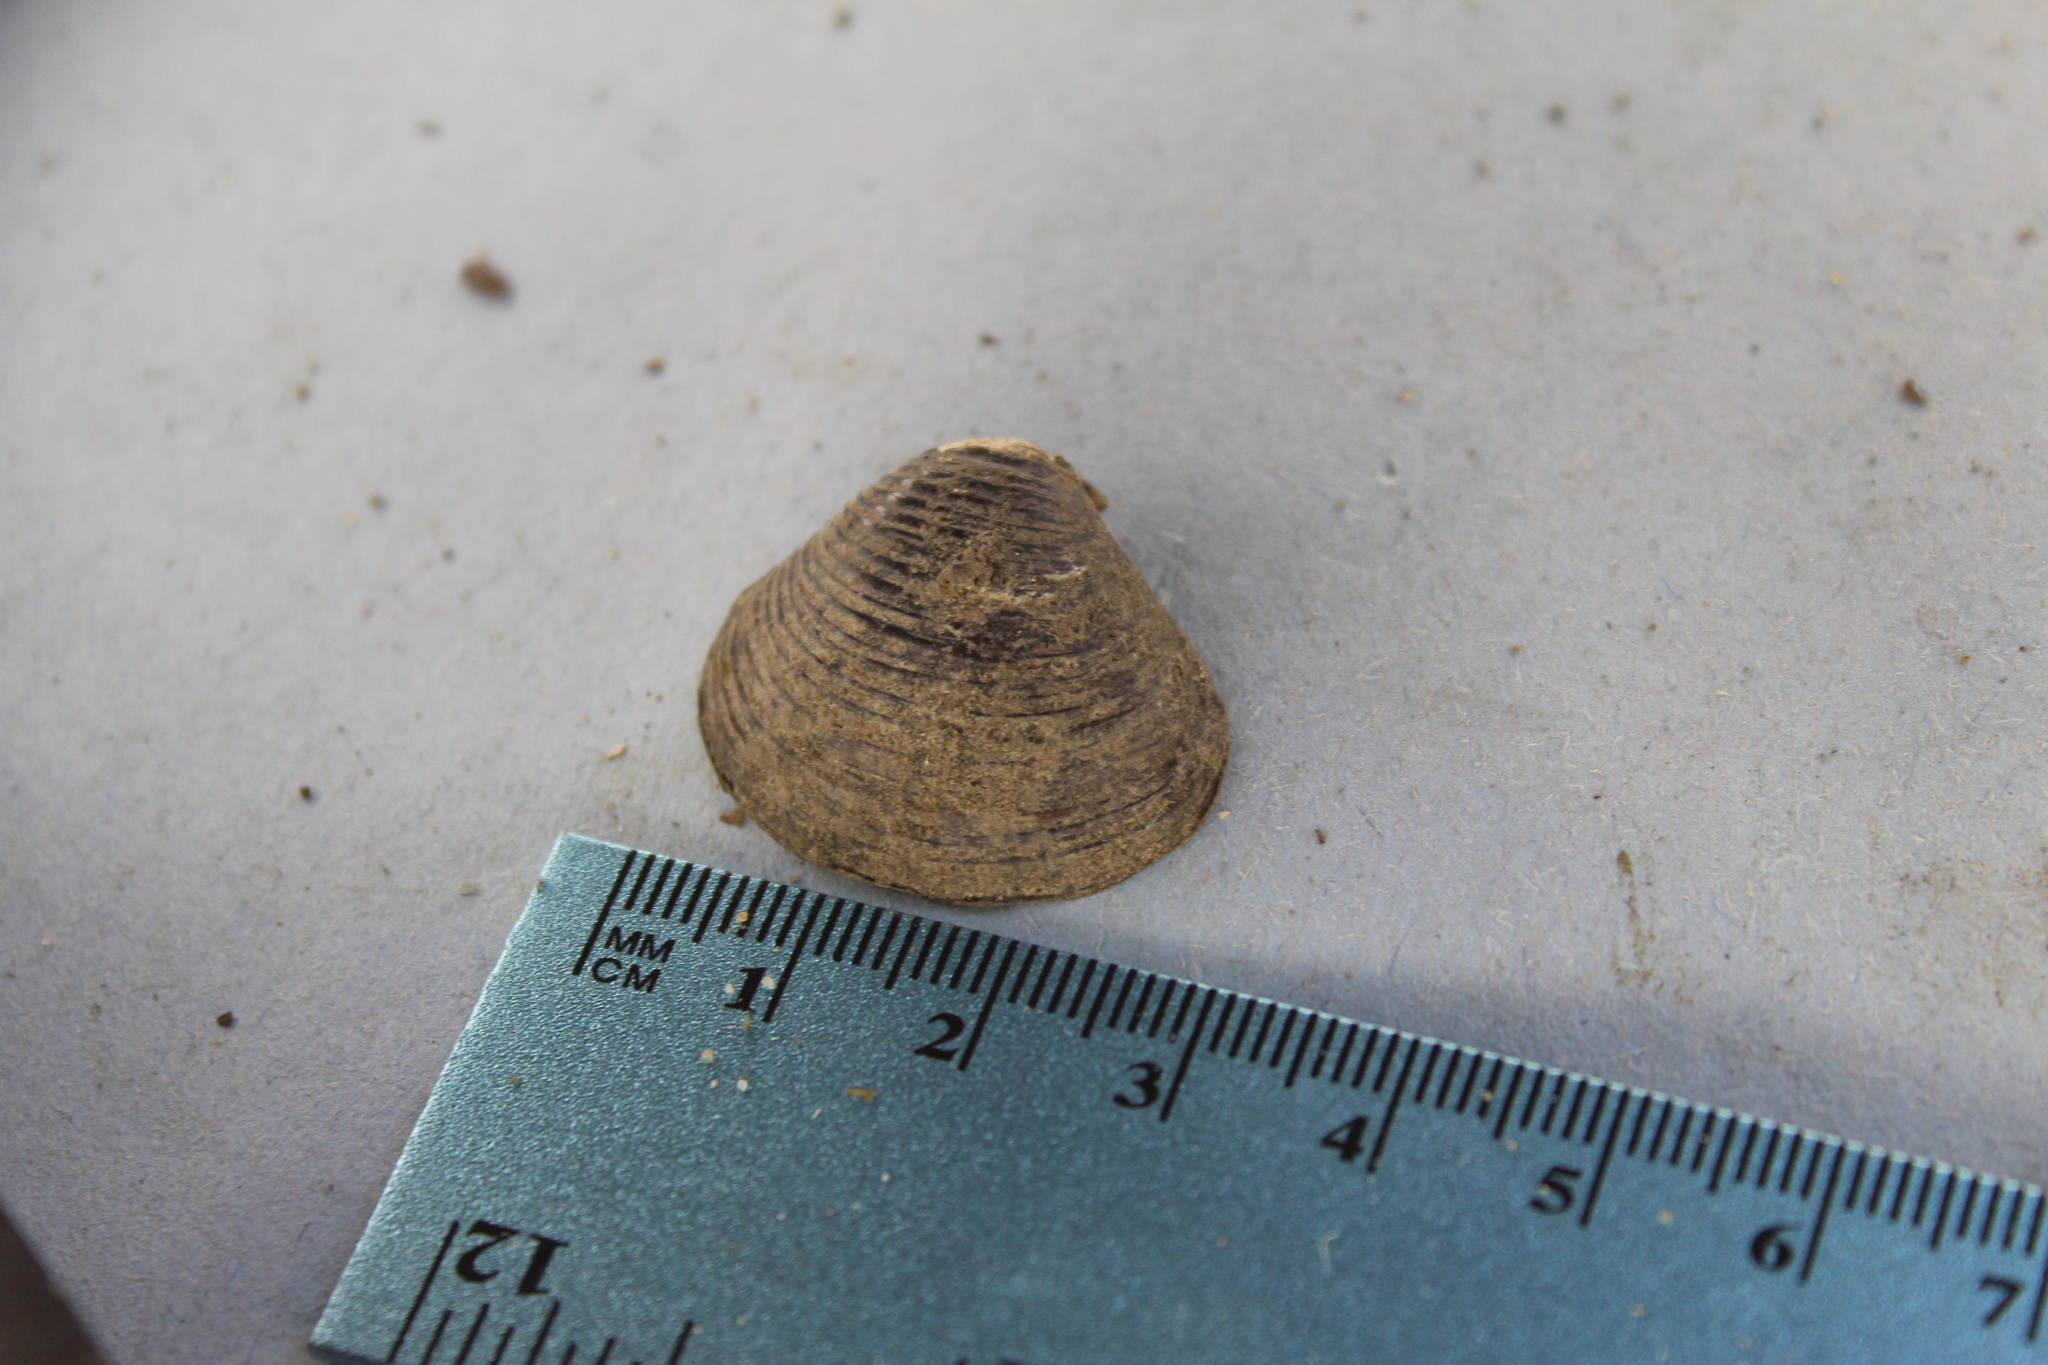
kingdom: Animalia
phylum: Mollusca
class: Bivalvia
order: Venerida
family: Cyrenidae
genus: Corbicula
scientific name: Corbicula fluminea
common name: Asian clam
